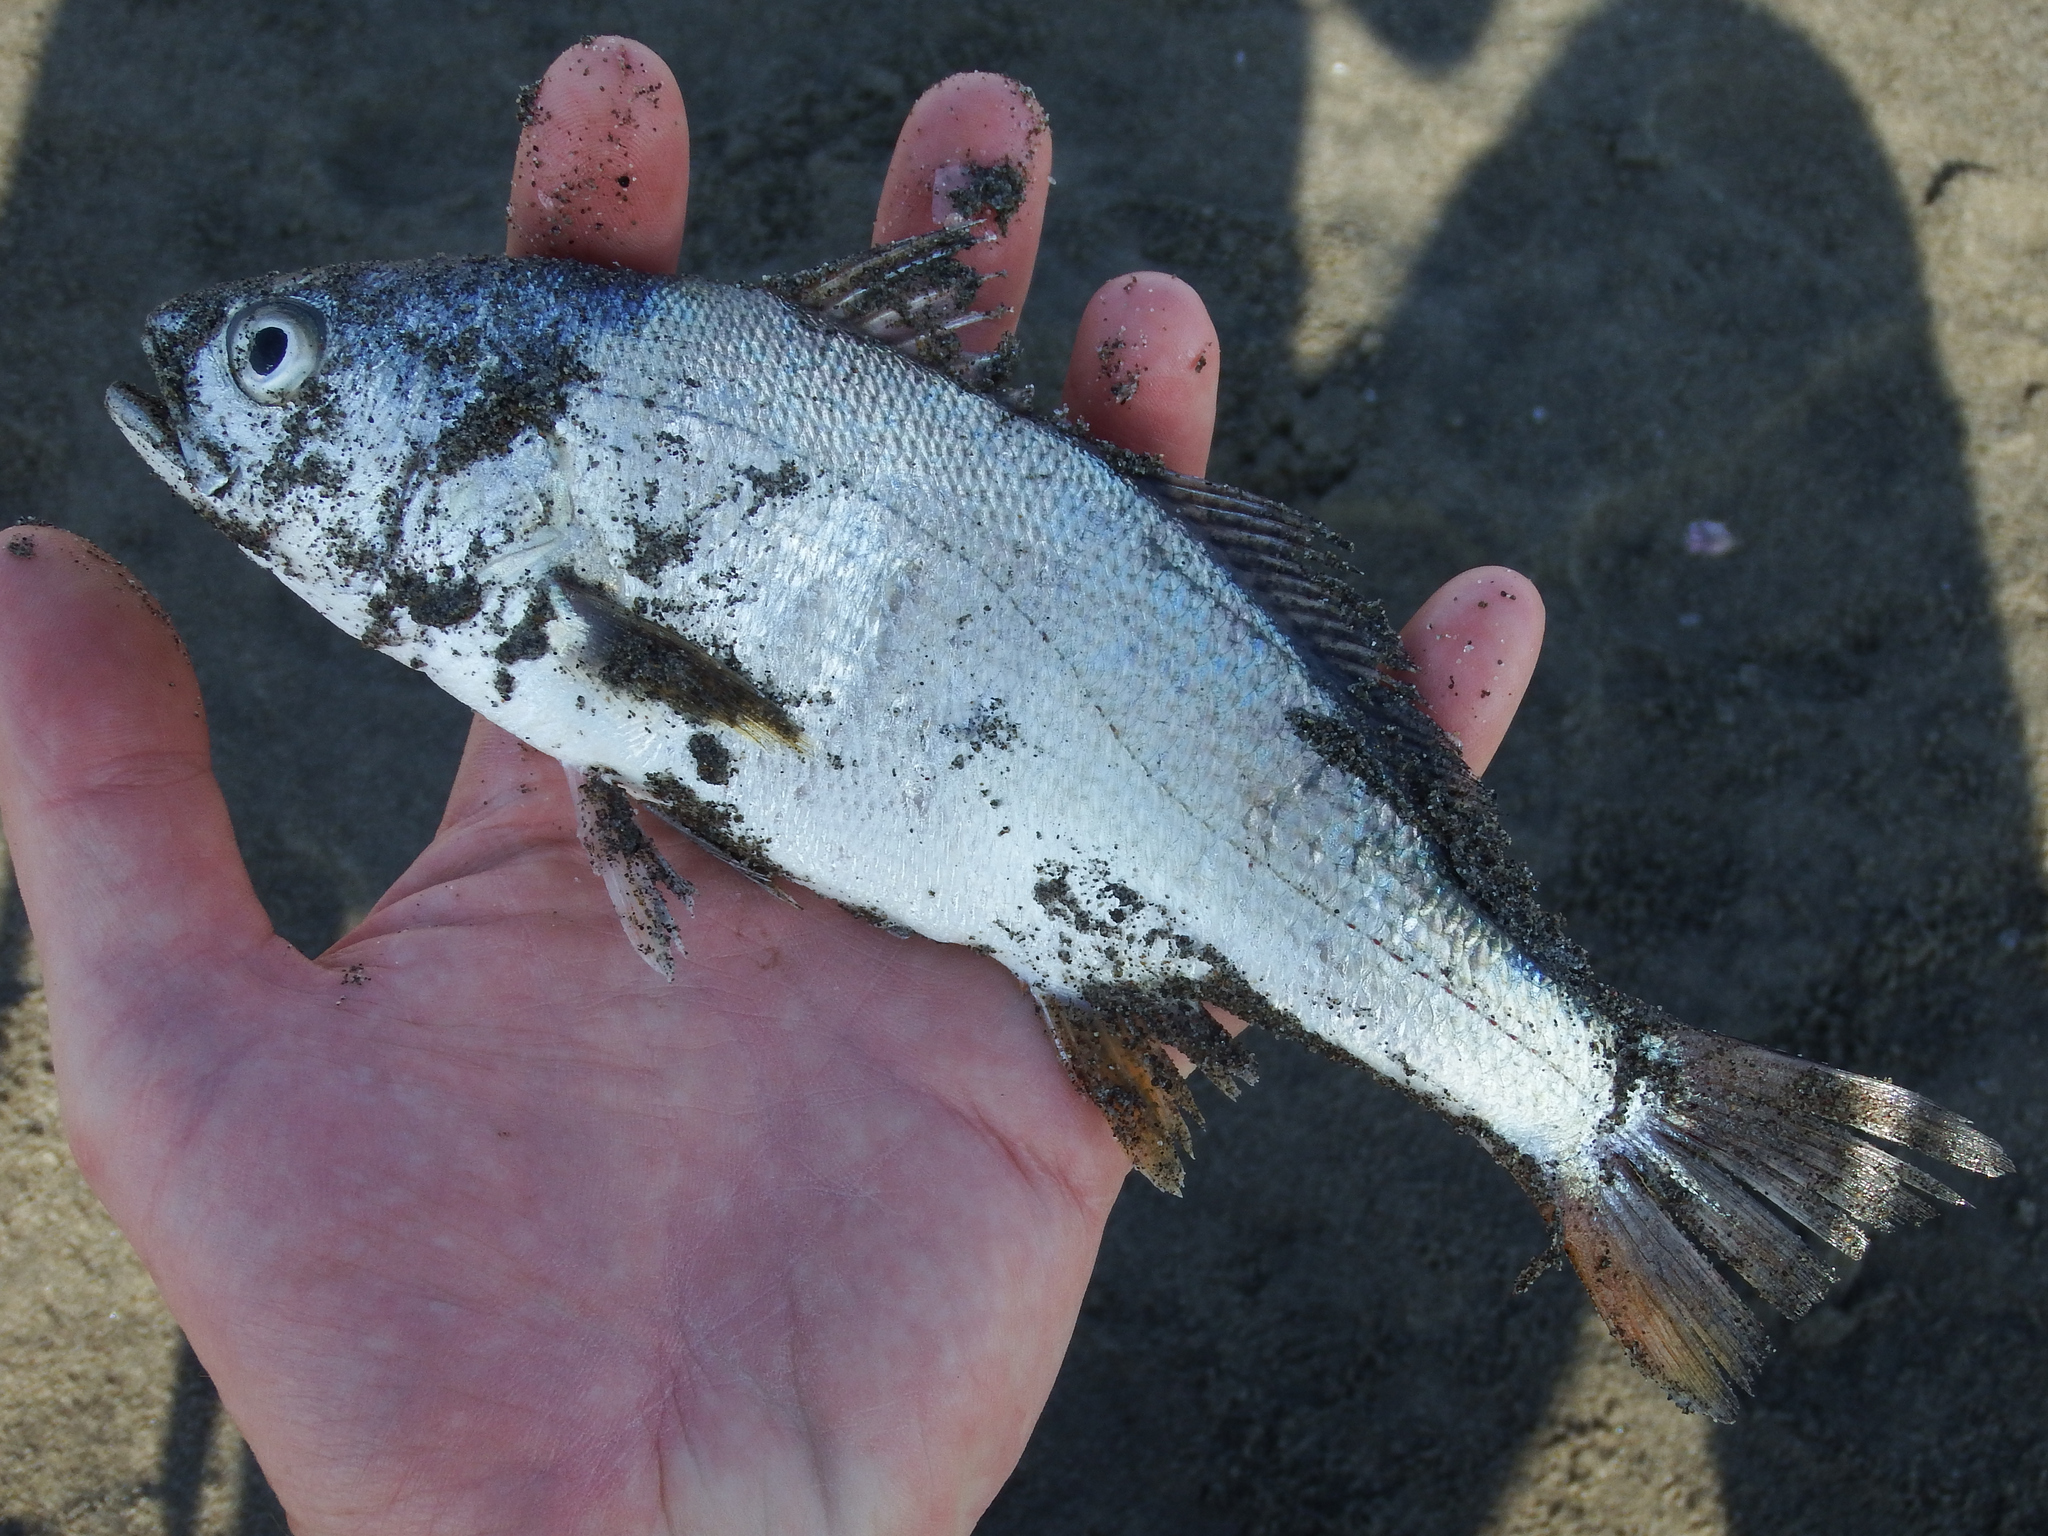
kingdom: Animalia
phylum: Chordata
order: Perciformes
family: Sciaenidae
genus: Cilus
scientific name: Cilus gilberti
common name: Corvina drum
